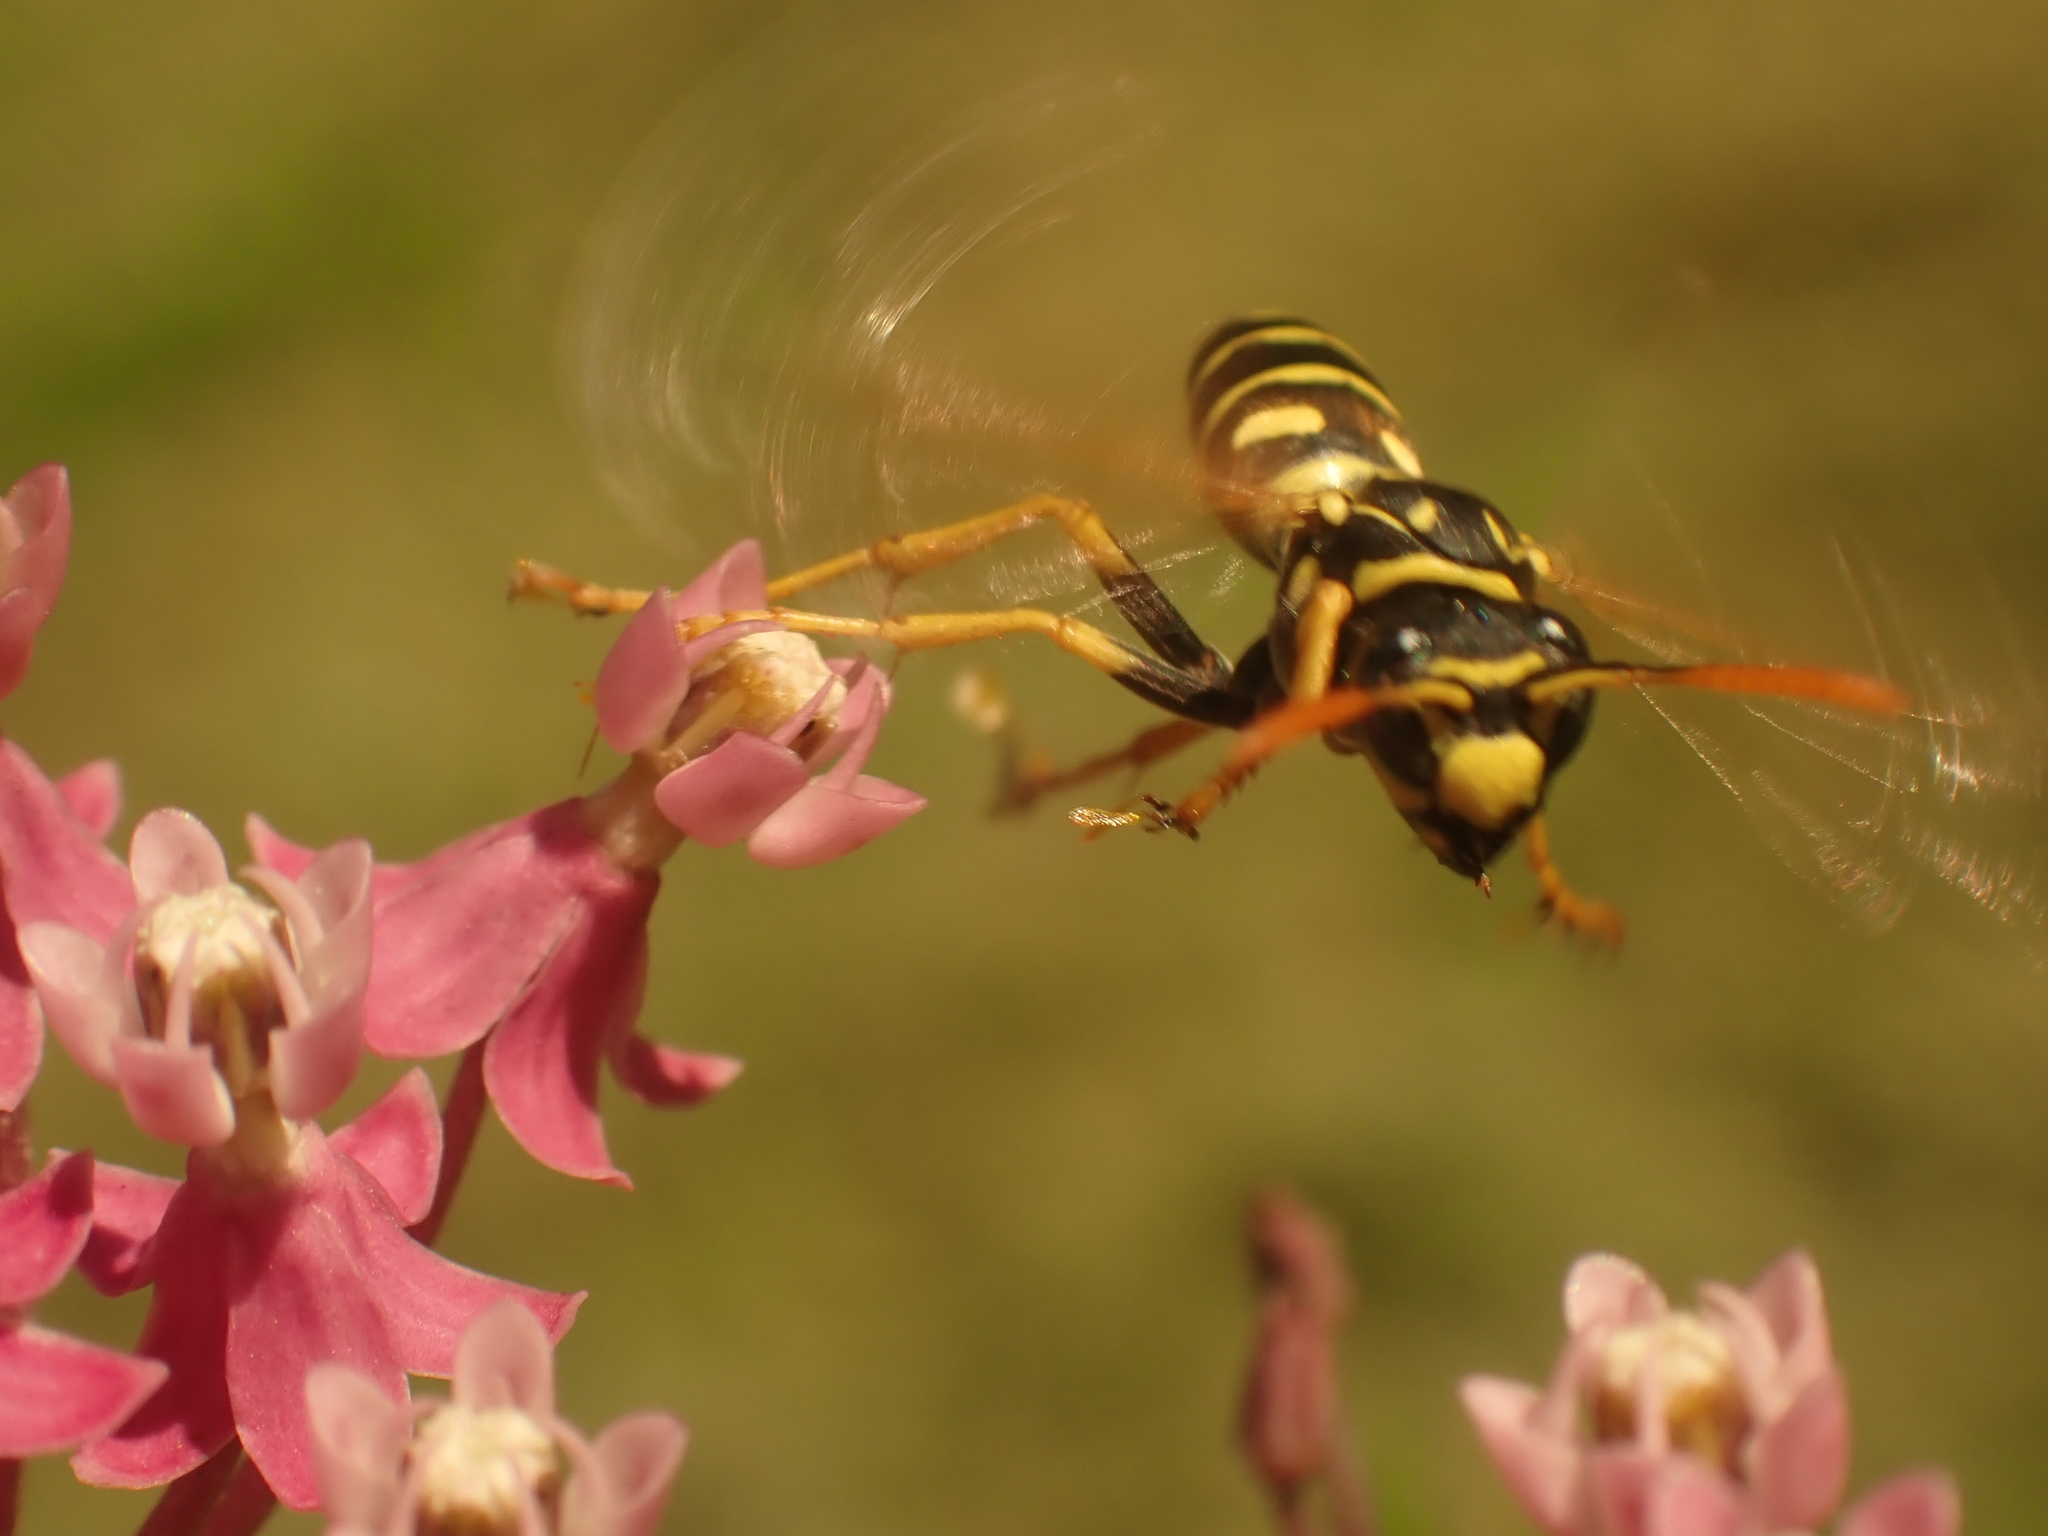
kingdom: Animalia
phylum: Arthropoda
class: Insecta
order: Hymenoptera
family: Eumenidae
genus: Polistes
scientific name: Polistes dominula
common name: Paper wasp
